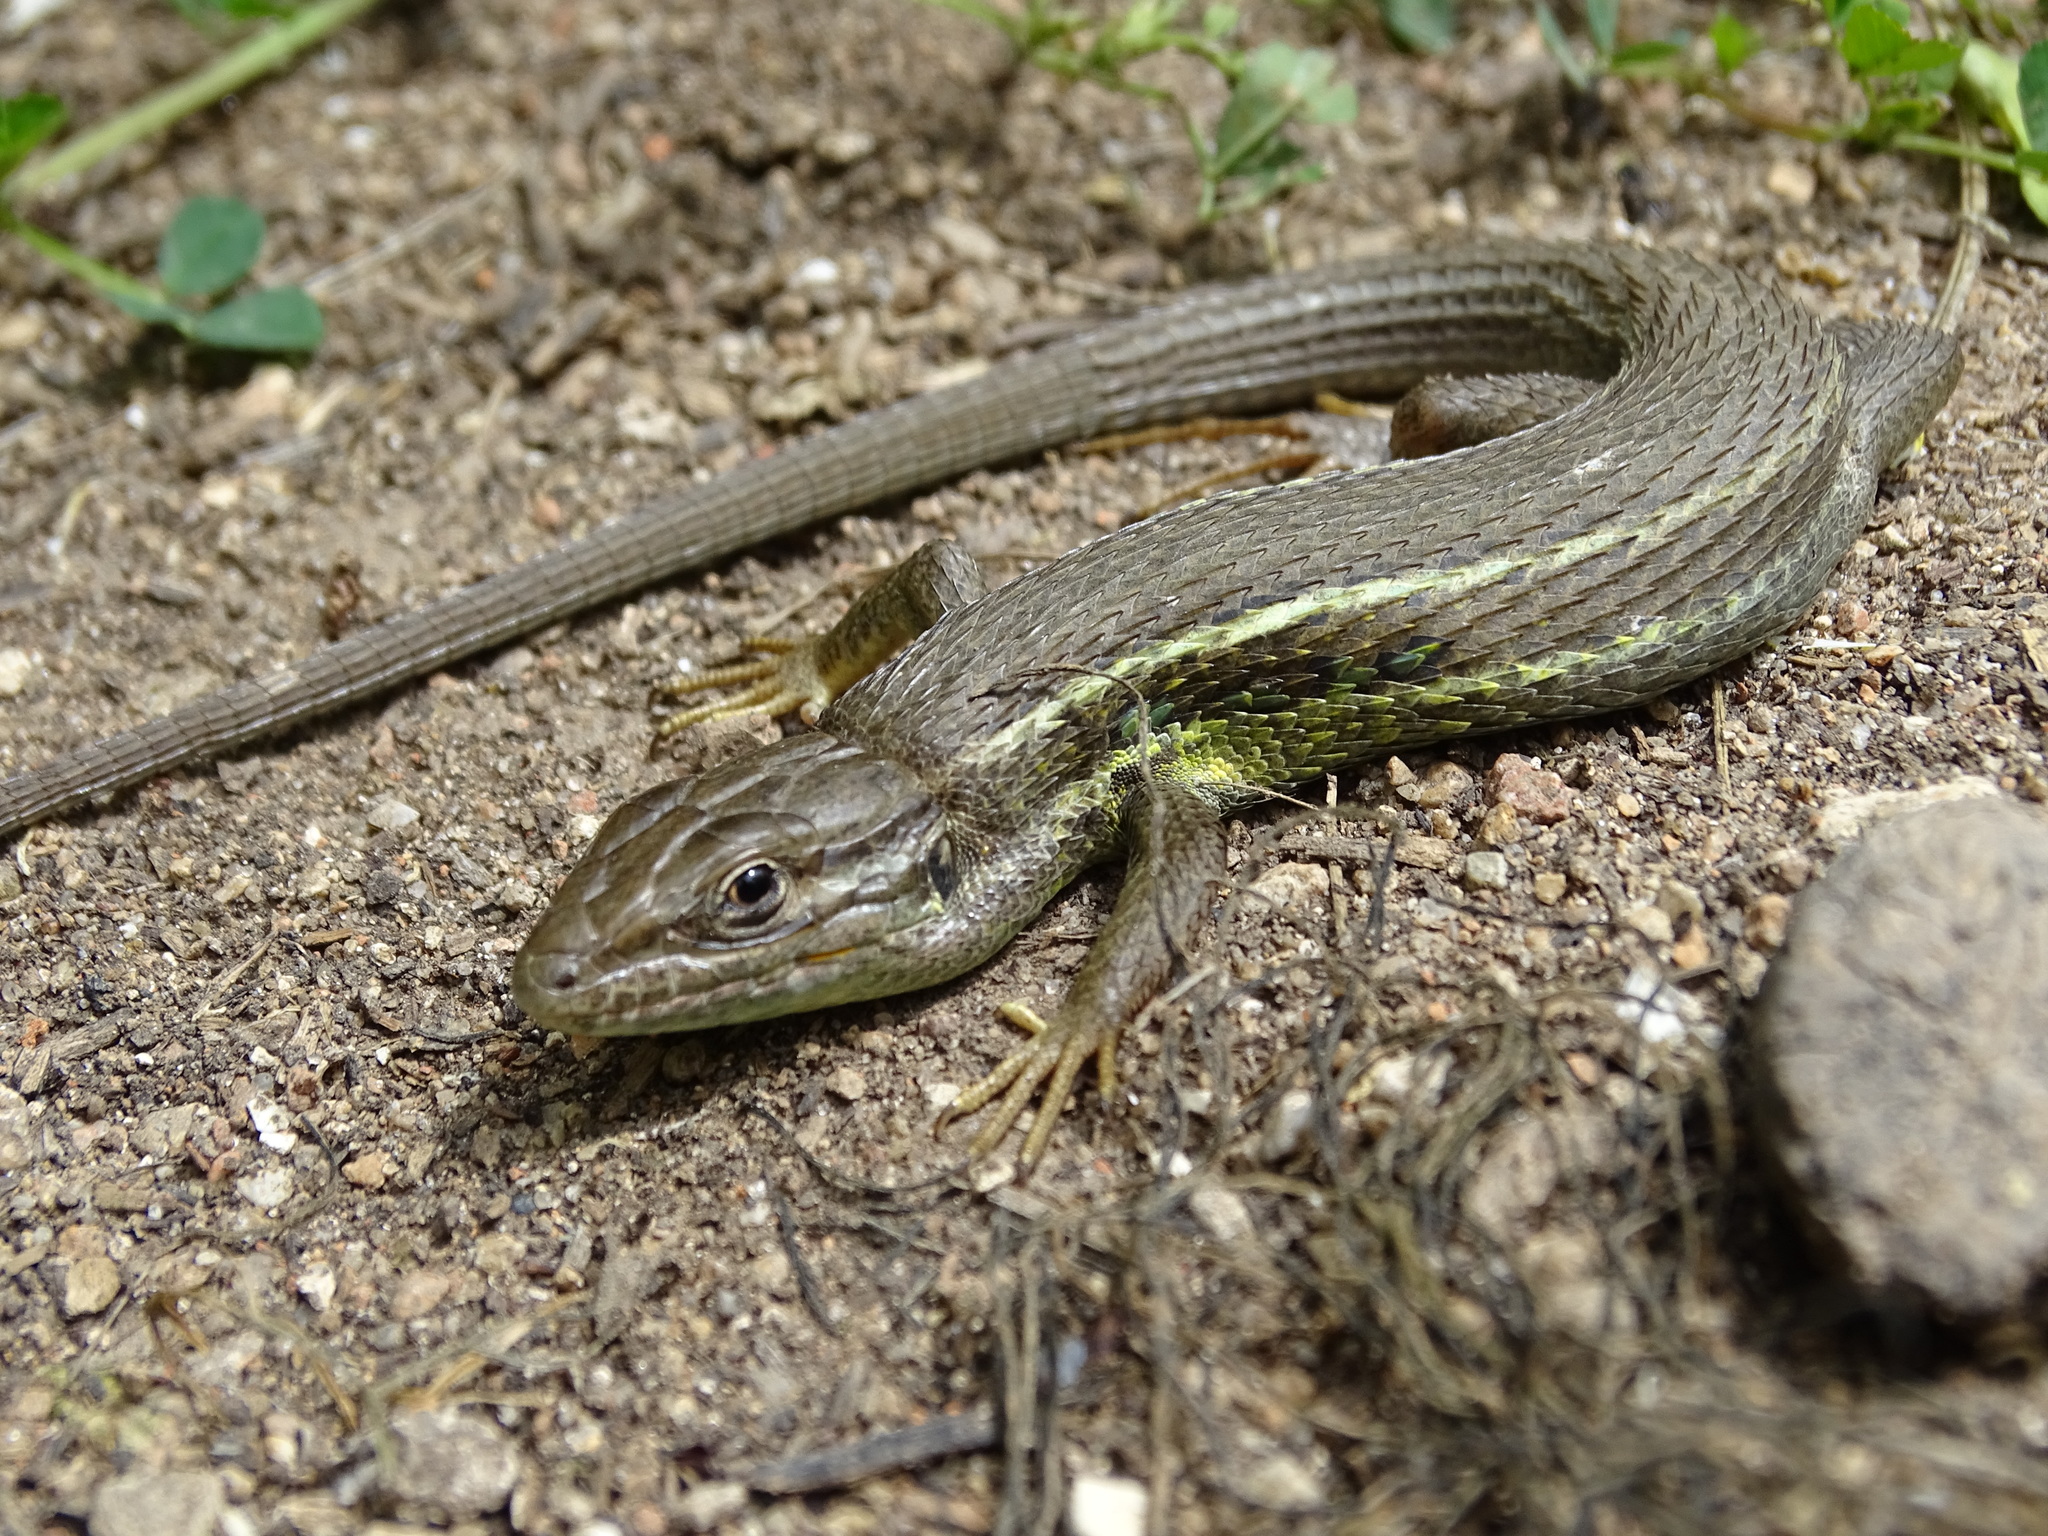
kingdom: Animalia
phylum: Chordata
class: Squamata
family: Lacertidae
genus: Psammodromus
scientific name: Psammodromus algirus
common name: Algerian psammodromus
